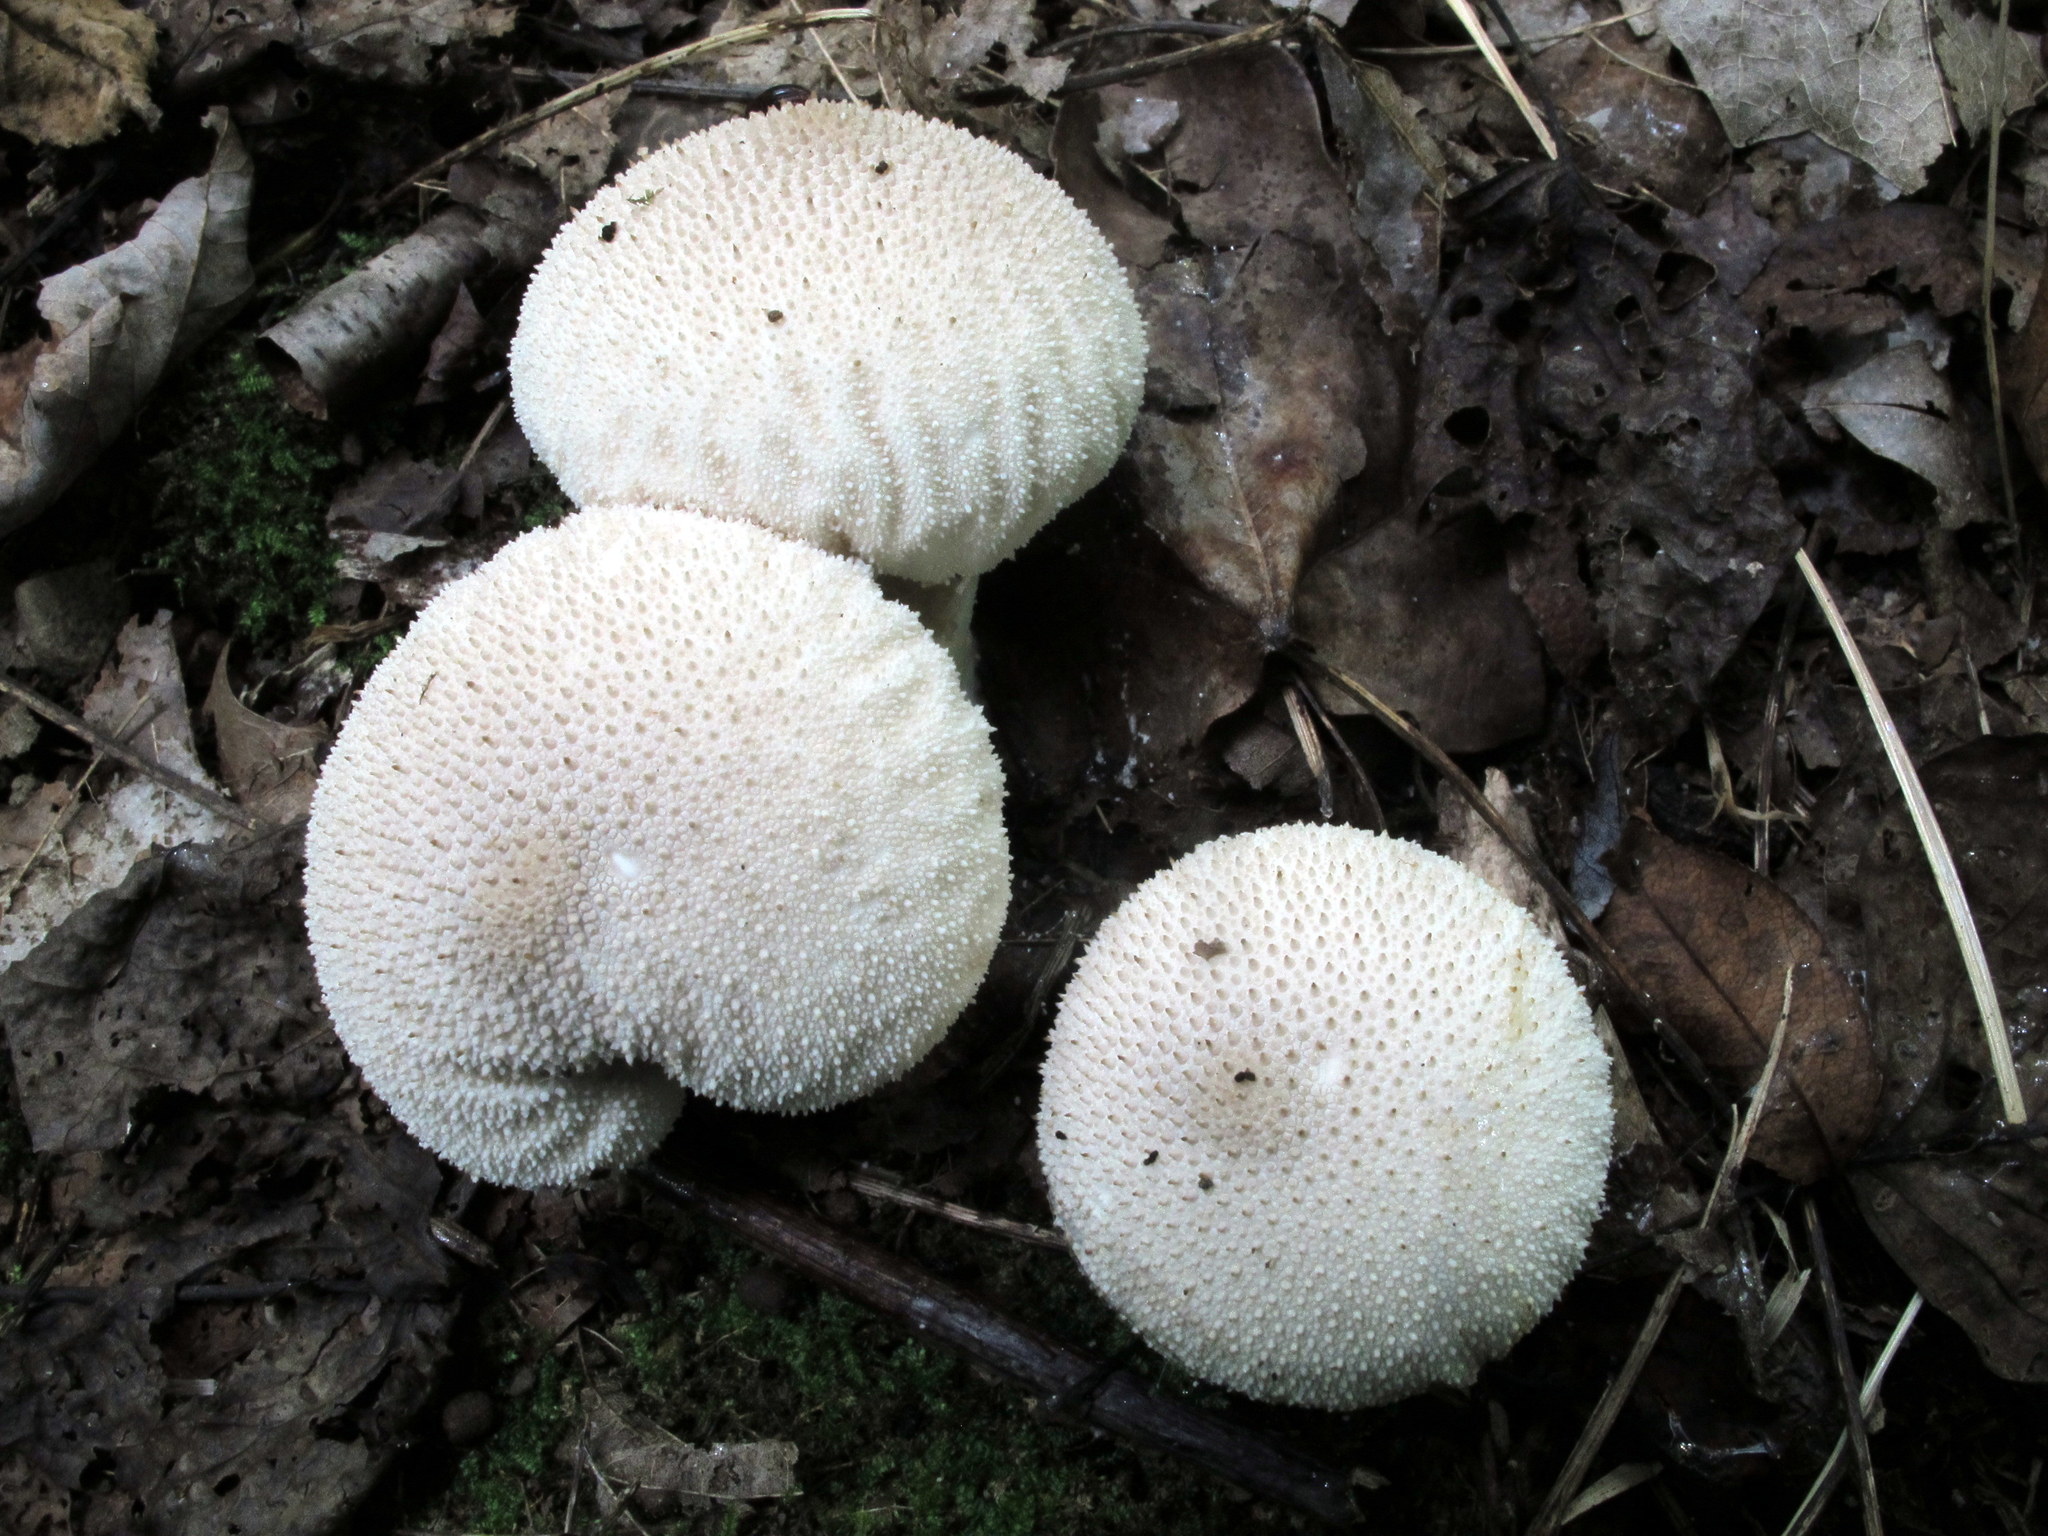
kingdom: Fungi
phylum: Basidiomycota
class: Agaricomycetes
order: Agaricales
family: Lycoperdaceae
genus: Lycoperdon
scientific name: Lycoperdon perlatum
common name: Common puffball
